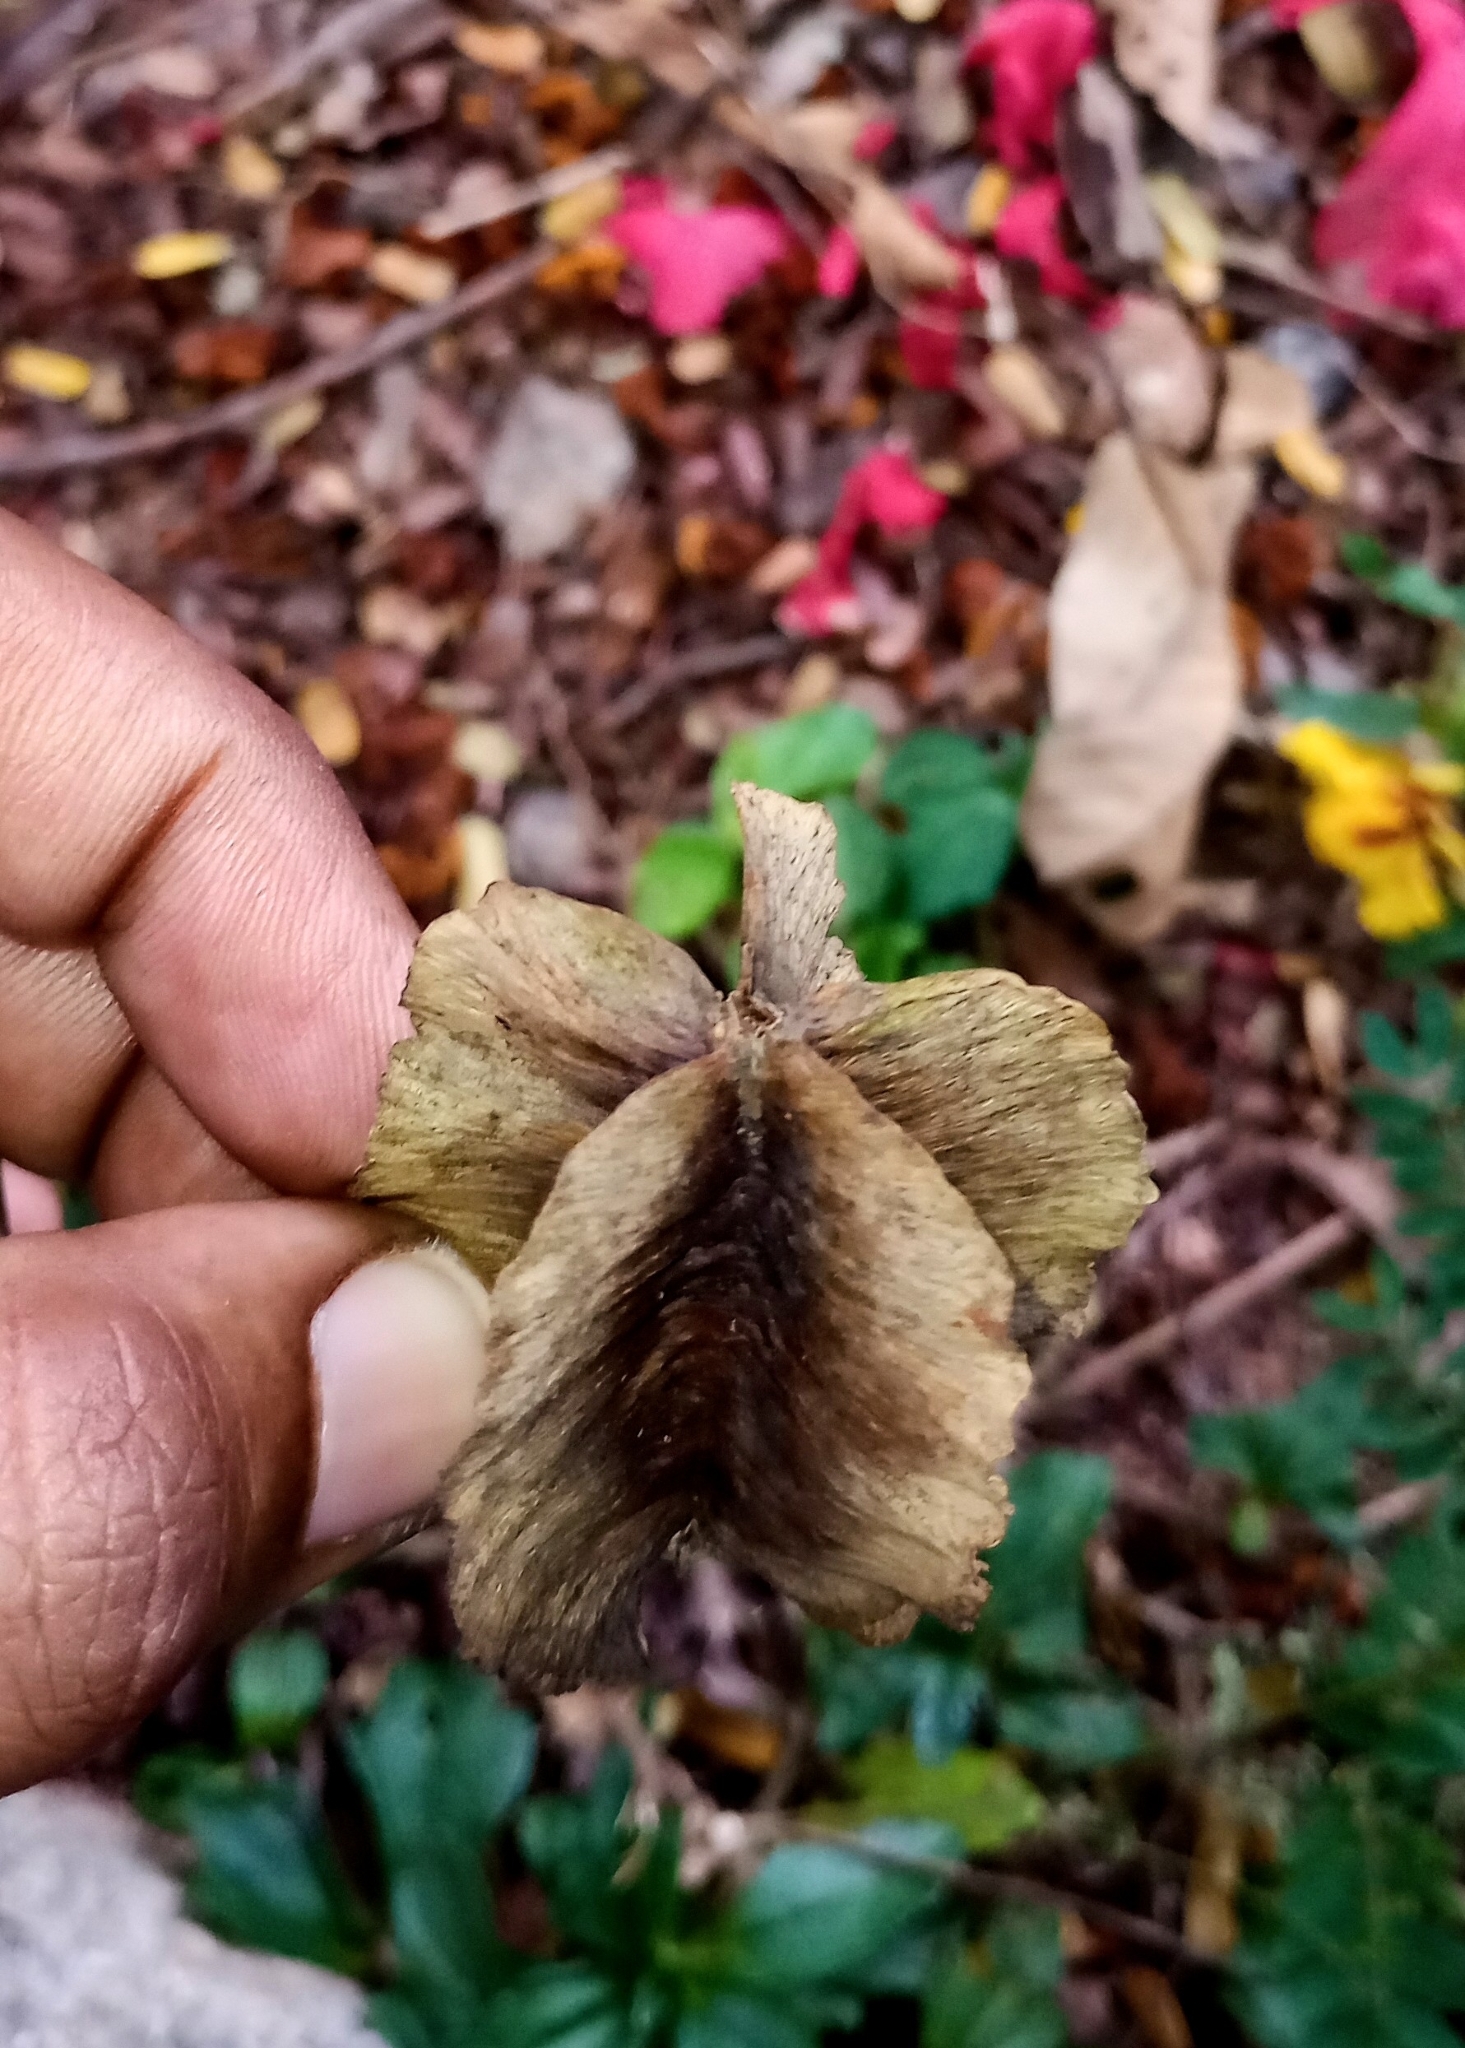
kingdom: Plantae
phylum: Tracheophyta
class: Magnoliopsida
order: Myrtales
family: Combretaceae
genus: Terminalia
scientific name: Terminalia elliptica
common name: Indian-laurel
